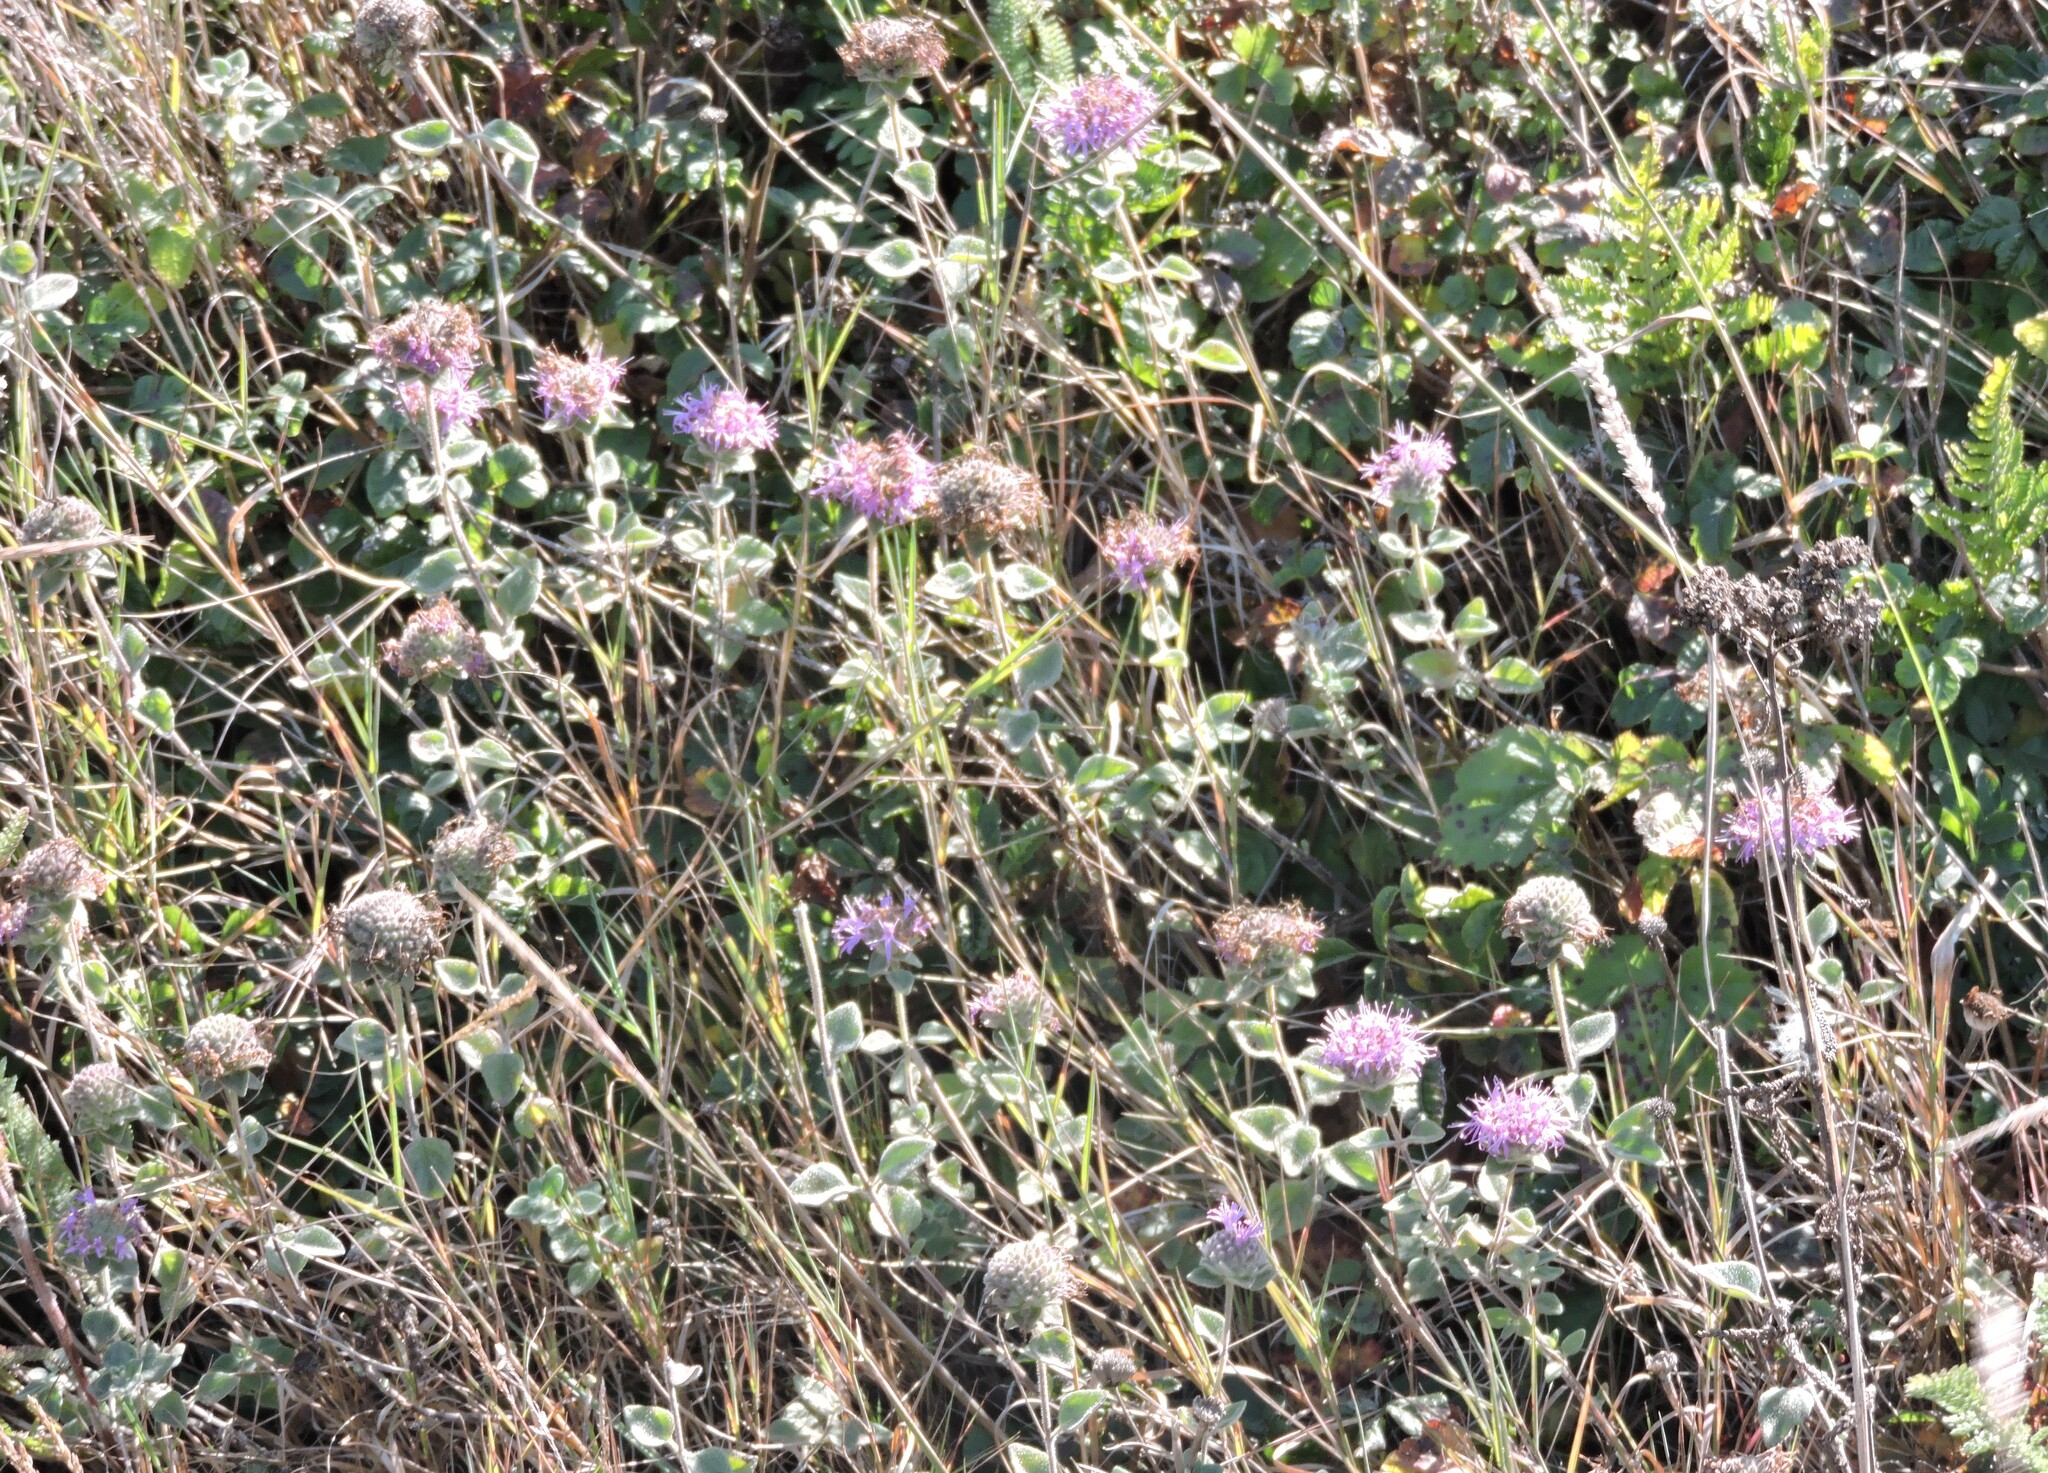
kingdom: Plantae
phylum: Tracheophyta
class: Magnoliopsida
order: Lamiales
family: Lamiaceae
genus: Monardella
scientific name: Monardella odoratissima
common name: Pacific monardella
